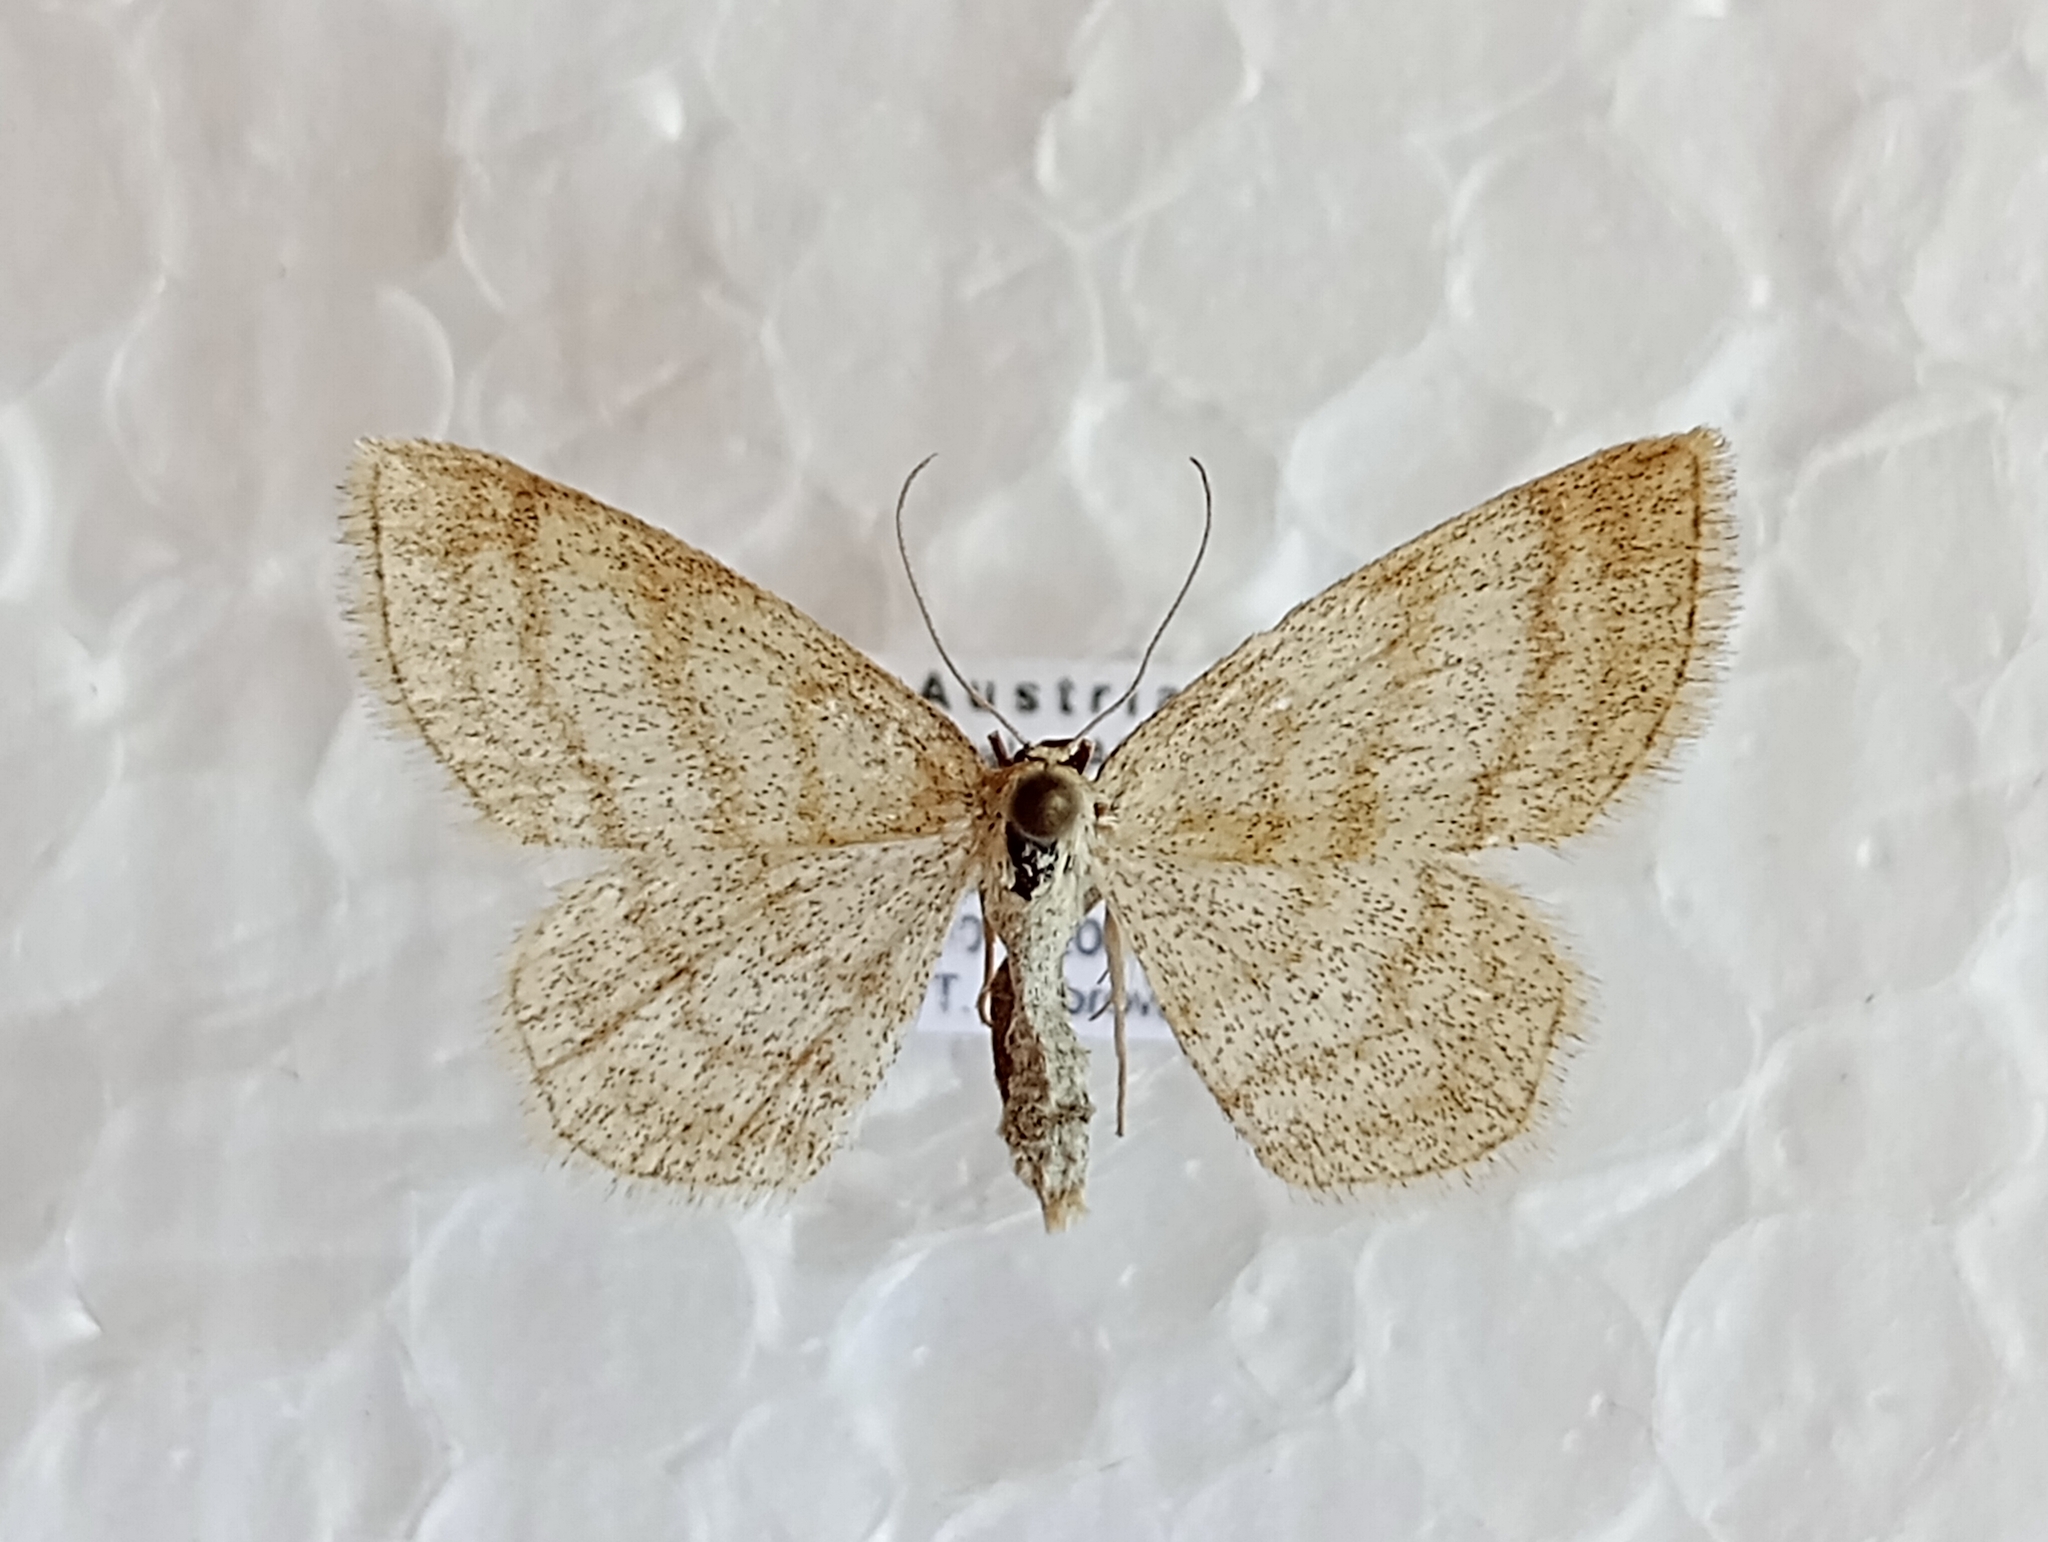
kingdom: Animalia
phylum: Arthropoda
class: Insecta
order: Lepidoptera
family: Geometridae
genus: Scopula
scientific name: Scopula ternata
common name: Smoky wave
